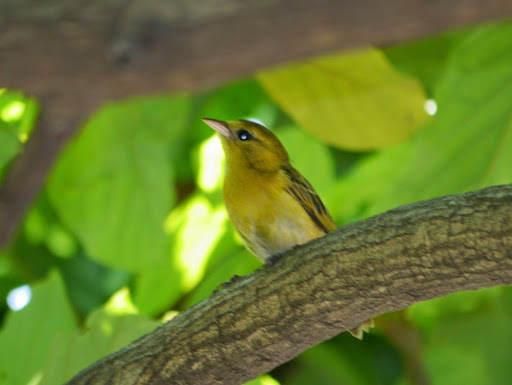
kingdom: Animalia
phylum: Chordata
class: Aves
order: Passeriformes
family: Ploceidae
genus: Ploceus
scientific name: Ploceus aurantius
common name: Orange weaver
